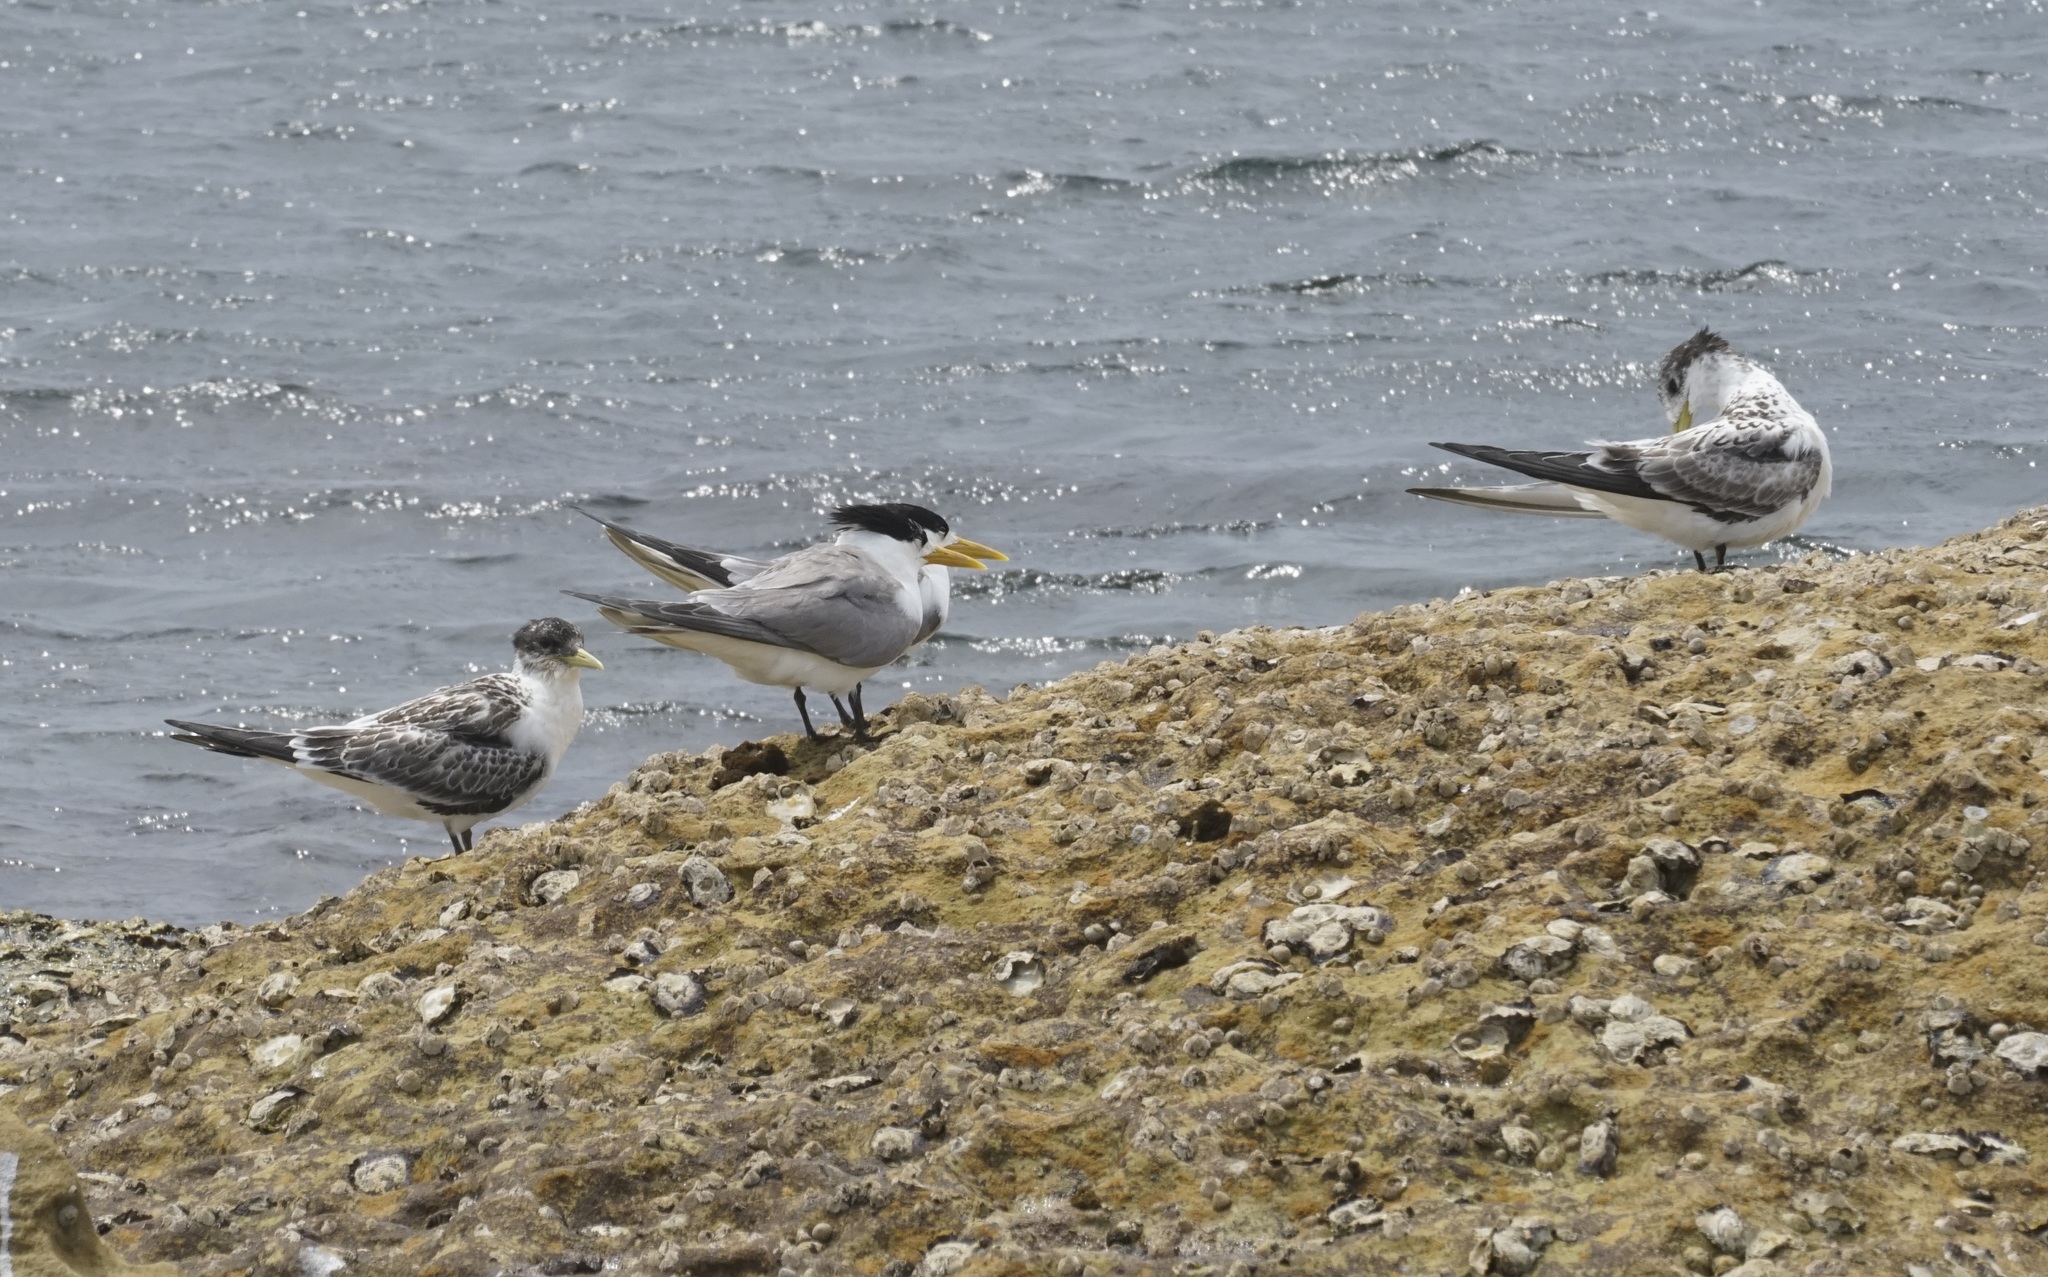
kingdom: Animalia
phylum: Chordata
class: Aves
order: Charadriiformes
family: Laridae
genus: Thalasseus
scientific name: Thalasseus bergii
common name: Greater crested tern
